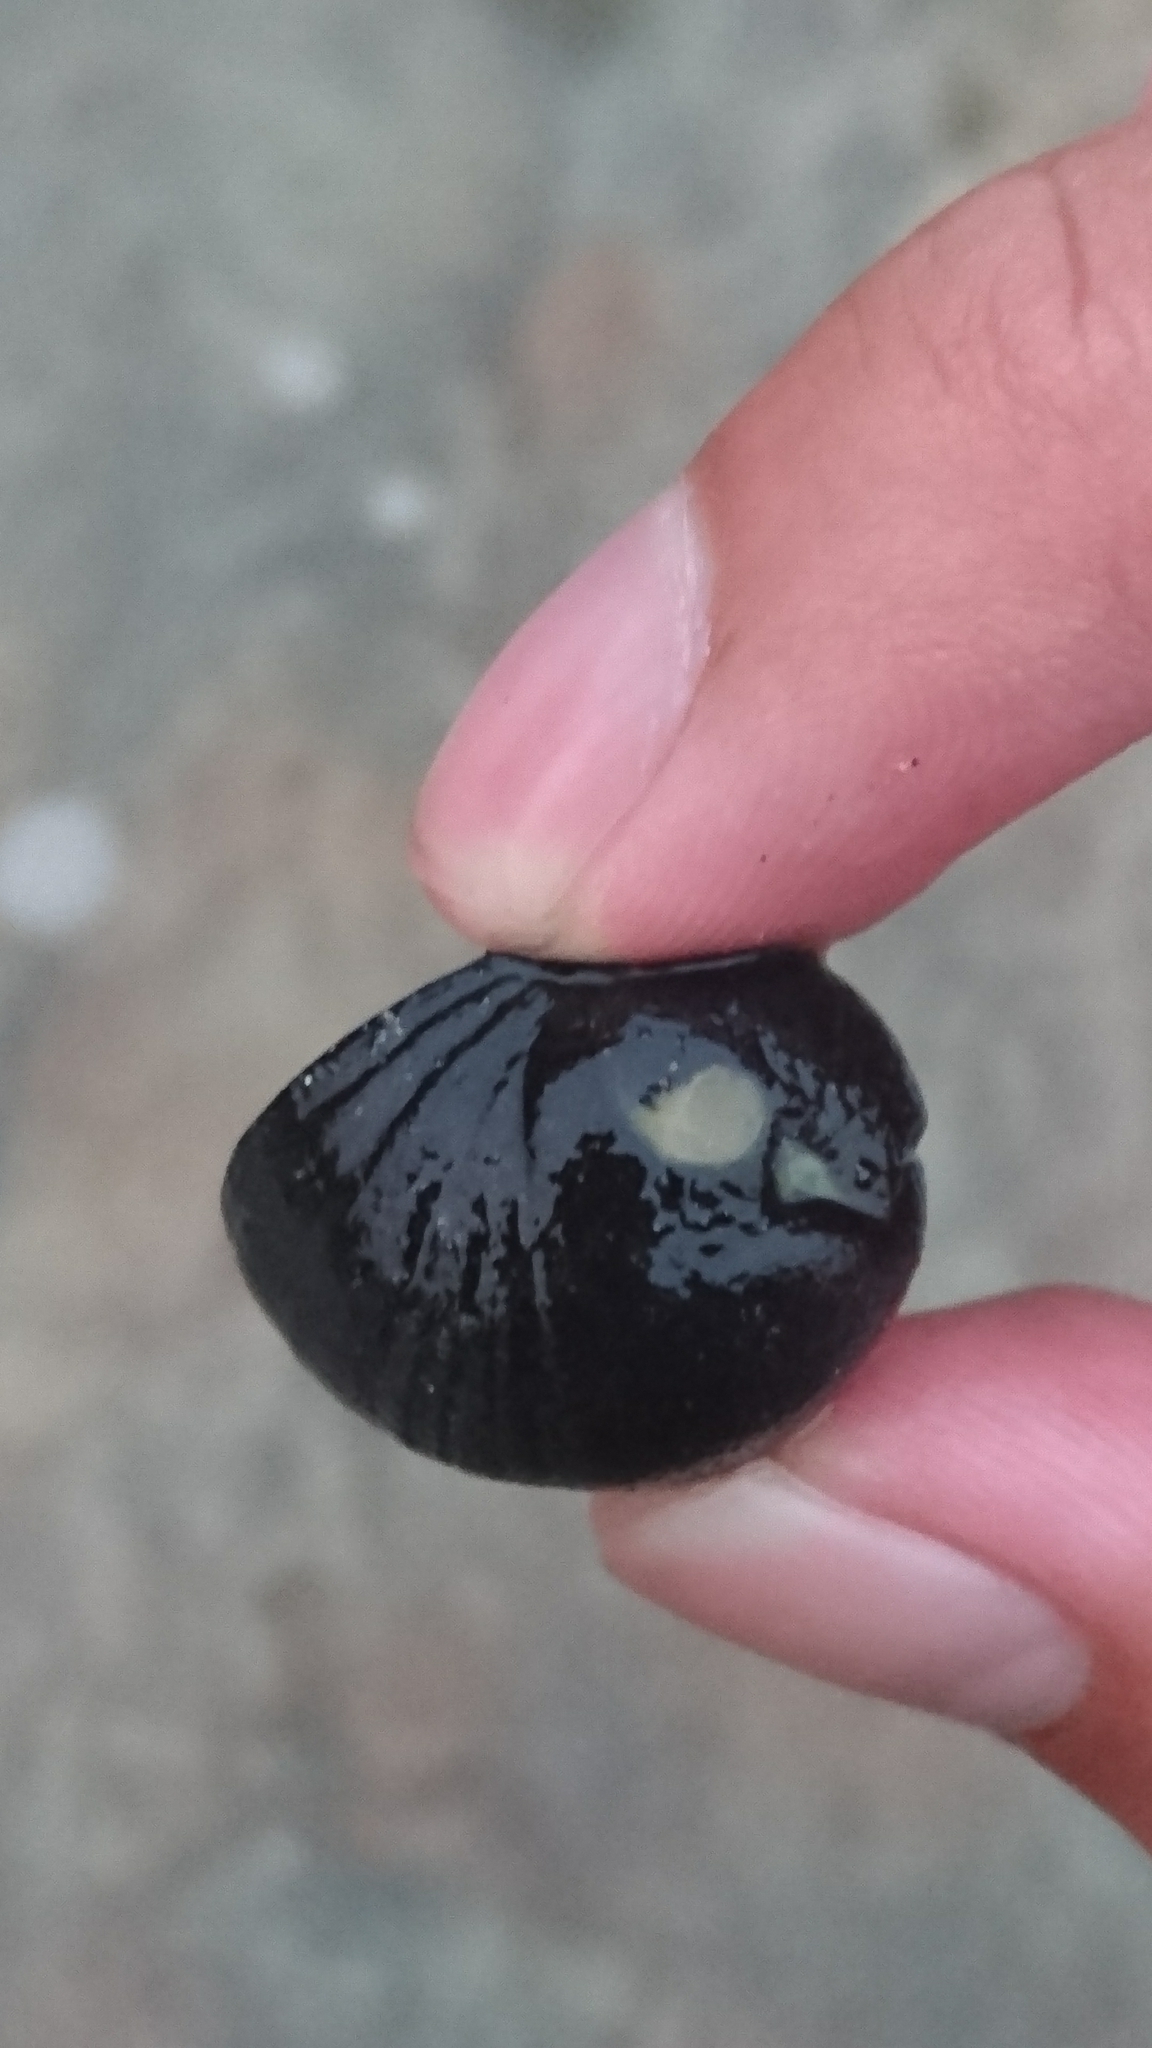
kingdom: Animalia
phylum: Mollusca
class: Gastropoda
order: Cycloneritida
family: Neritidae
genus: Nerita
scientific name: Nerita melanotragus
